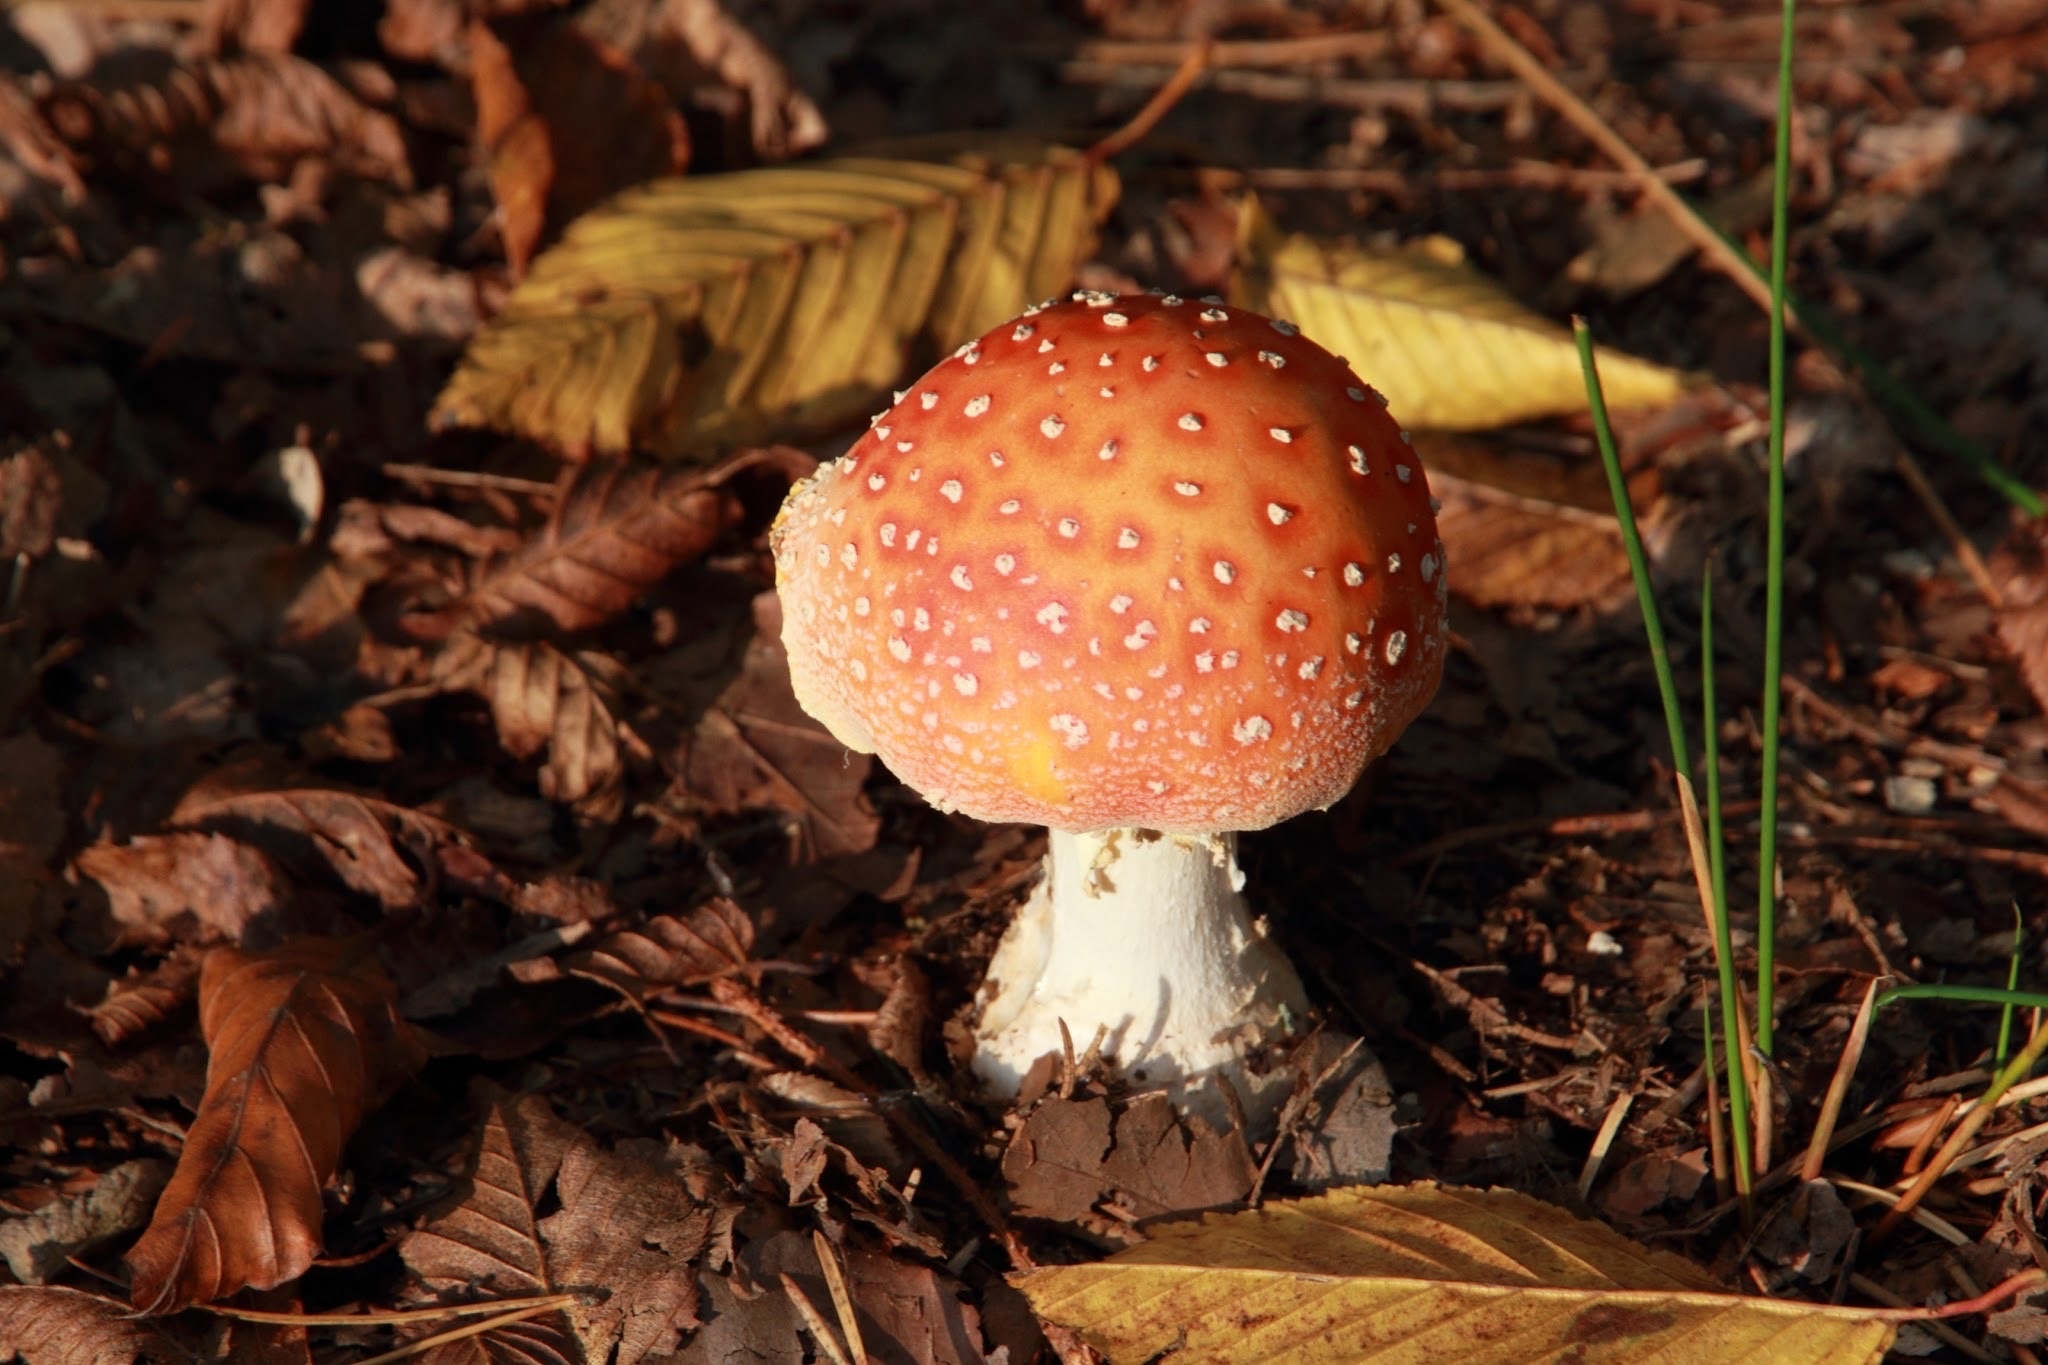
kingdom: Fungi
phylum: Basidiomycota
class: Agaricomycetes
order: Agaricales
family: Amanitaceae
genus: Amanita
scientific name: Amanita muscaria
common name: Fly agaric
